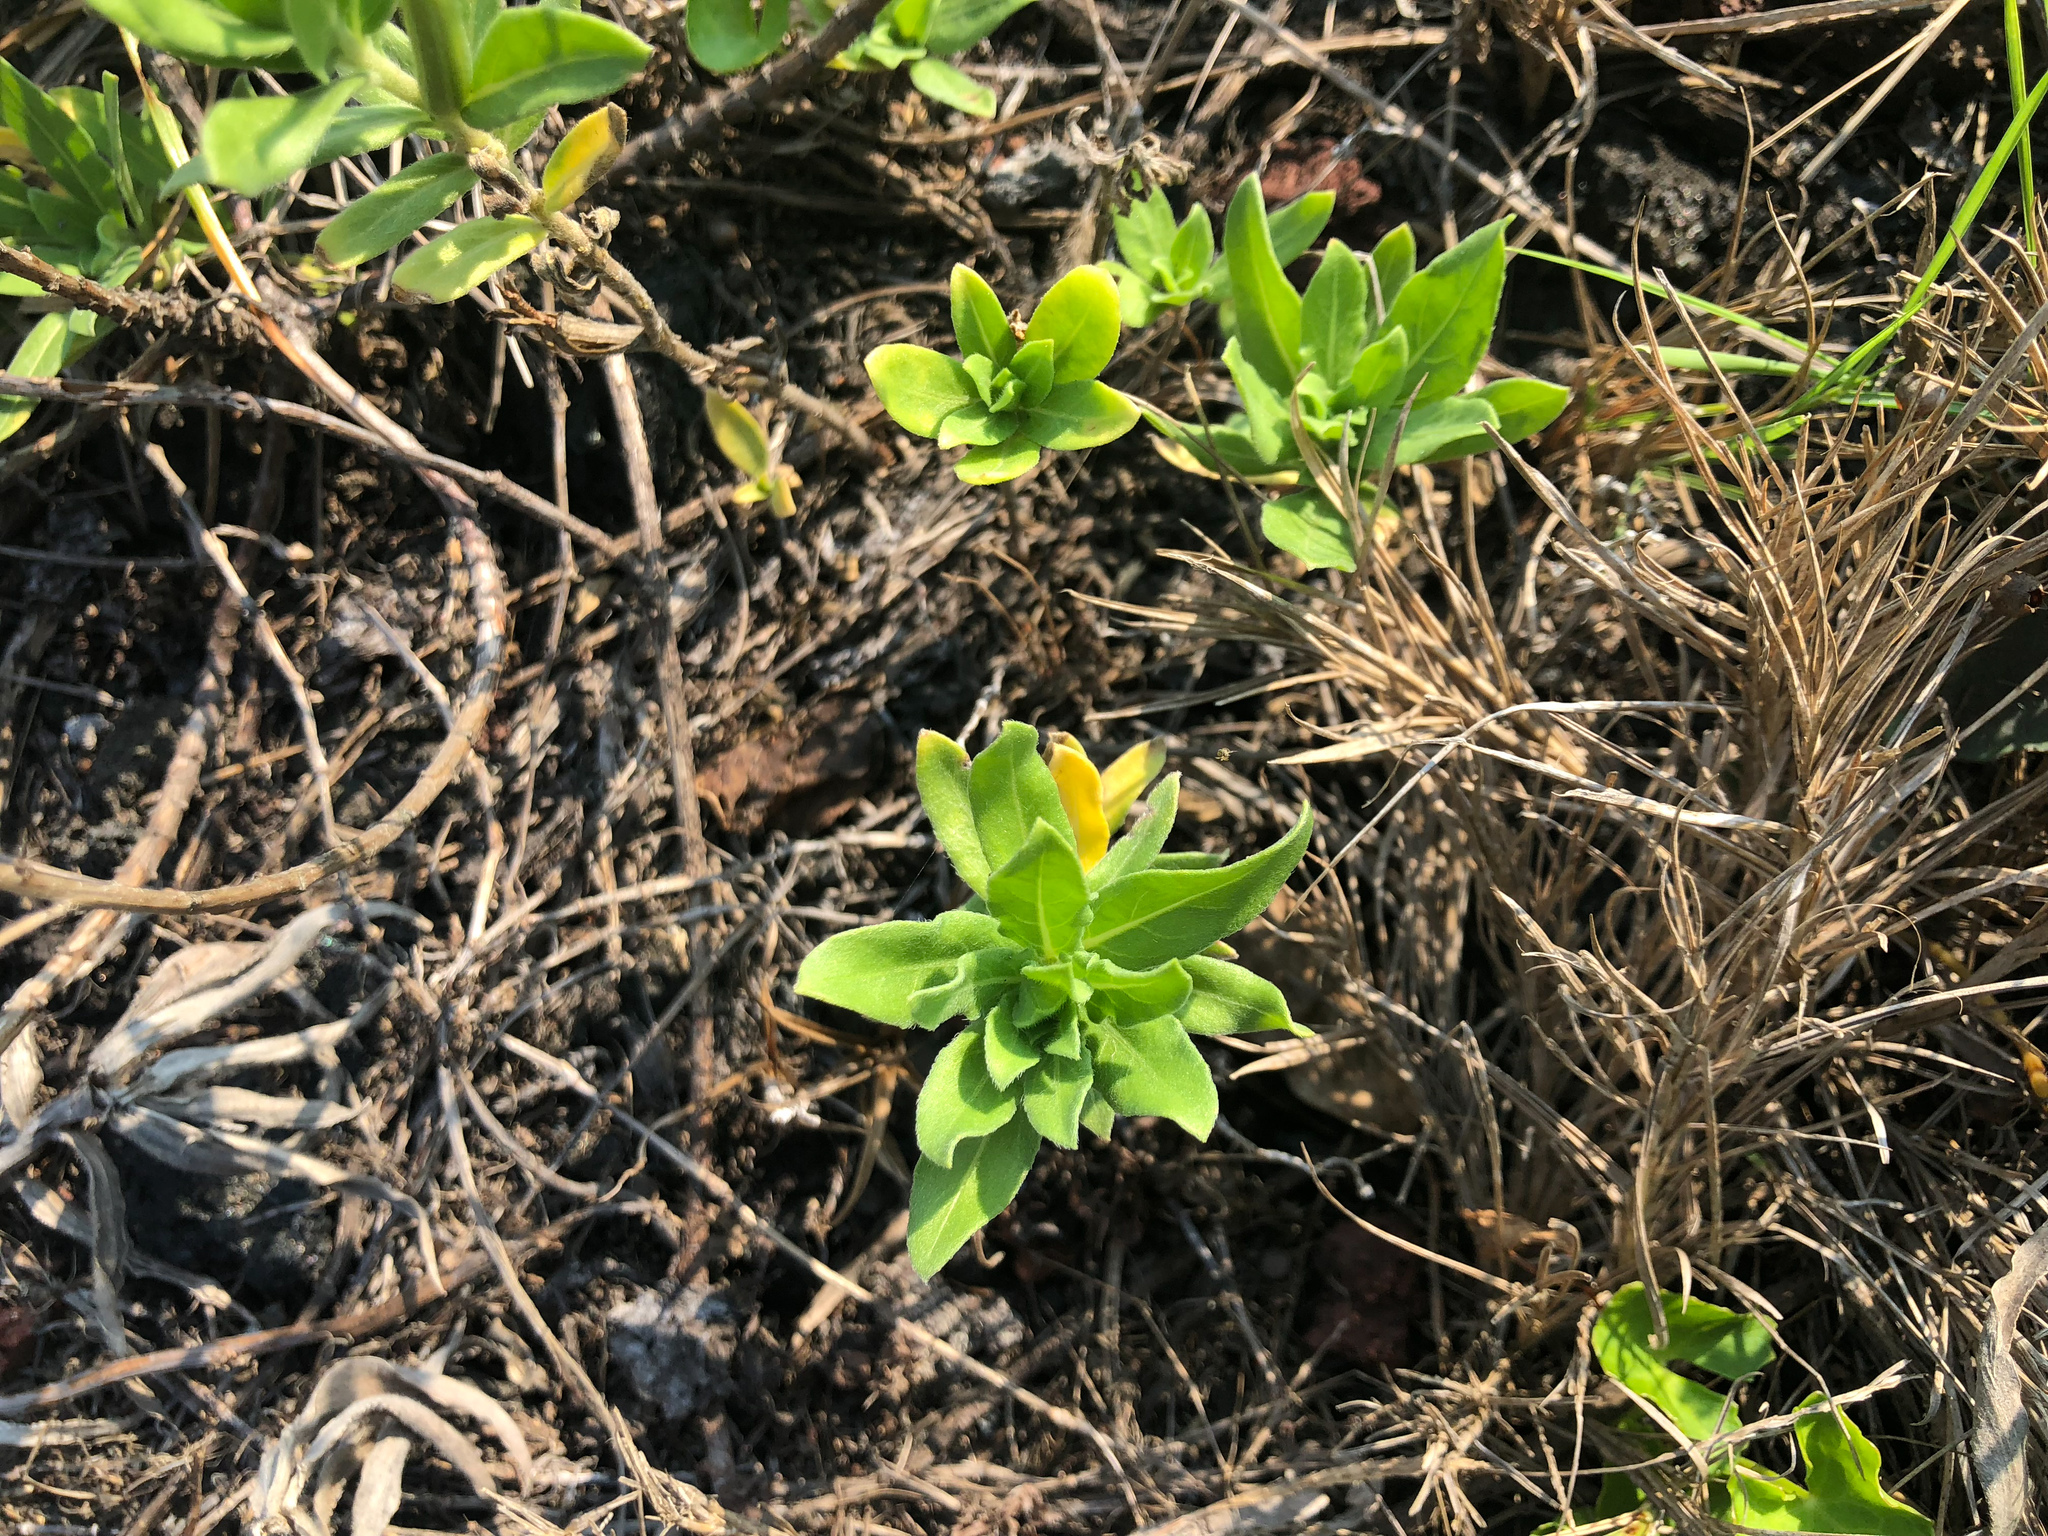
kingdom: Plantae
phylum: Tracheophyta
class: Magnoliopsida
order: Myrtales
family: Onagraceae
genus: Oenothera
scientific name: Oenothera laciniata
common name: Cut-leaved evening-primrose
